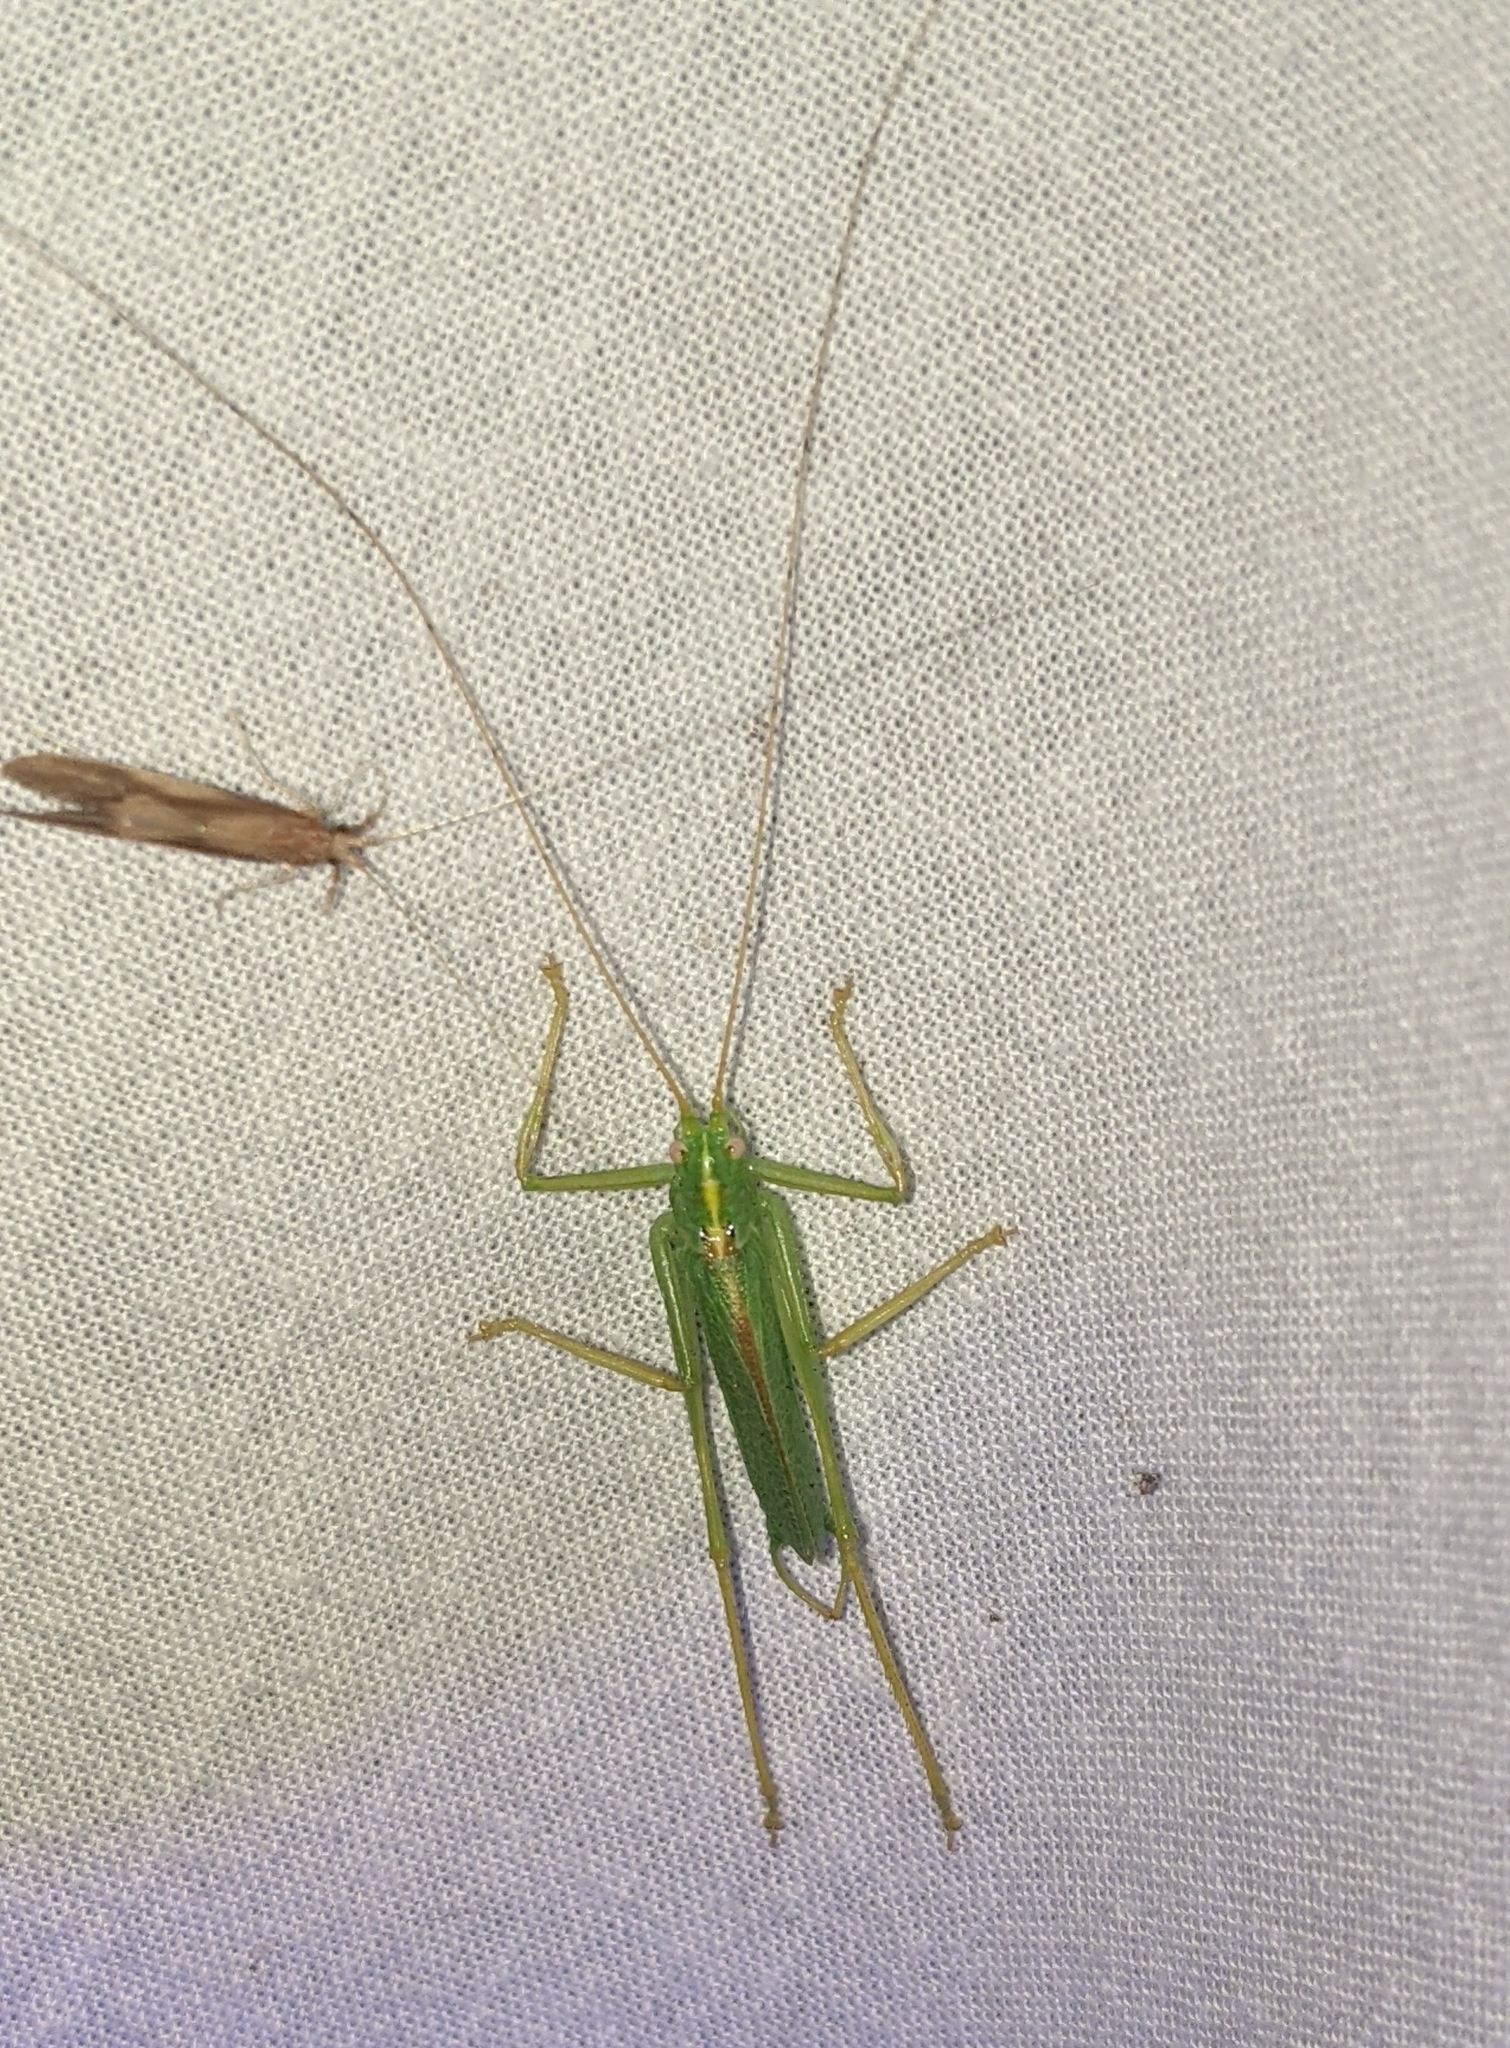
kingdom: Animalia
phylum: Arthropoda
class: Insecta
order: Orthoptera
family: Tettigoniidae
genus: Meconema
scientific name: Meconema thalassinum
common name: Oak bush-cricket
